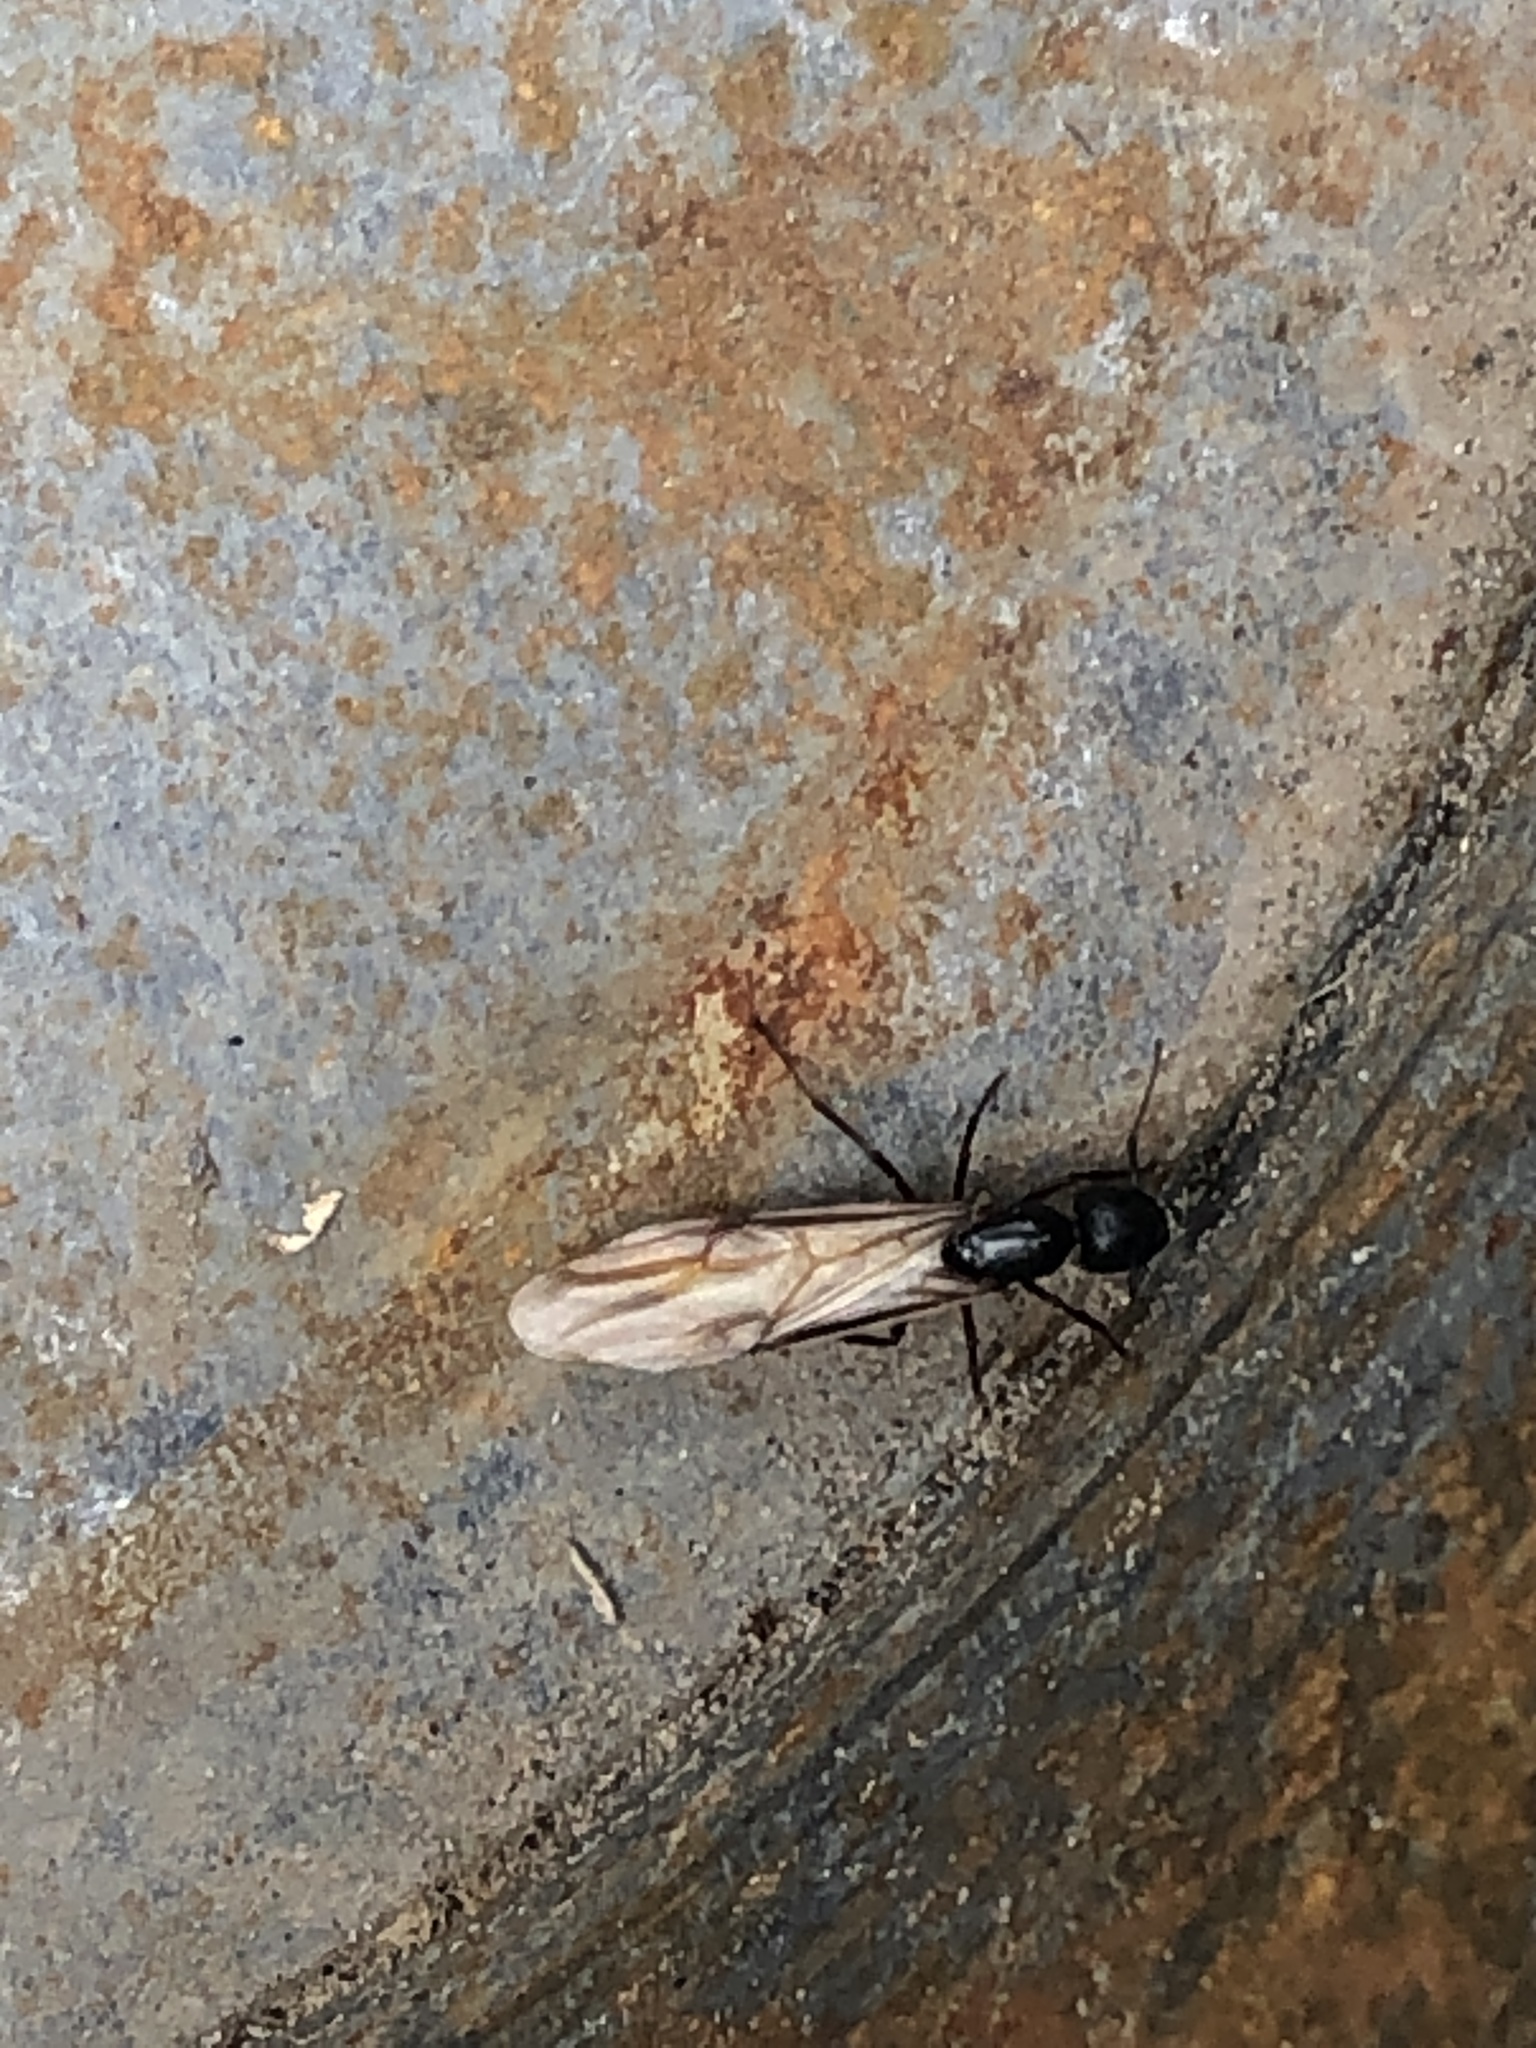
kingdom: Animalia
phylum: Arthropoda
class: Insecta
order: Hymenoptera
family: Formicidae
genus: Camponotus
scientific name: Camponotus herculeanus
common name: Hercules ant
